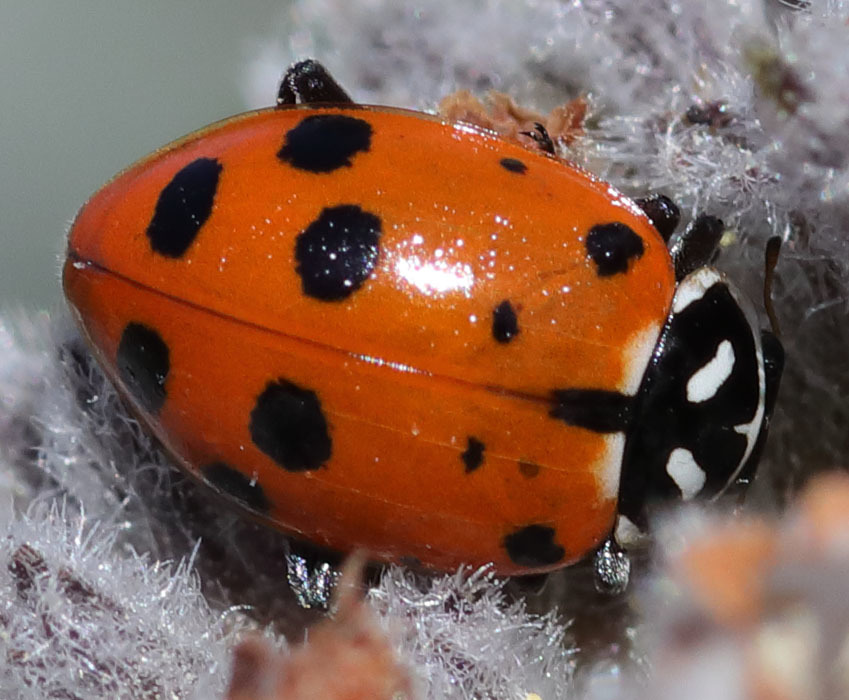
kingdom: Animalia
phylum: Arthropoda
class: Insecta
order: Coleoptera
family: Coccinellidae
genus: Hippodamia
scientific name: Hippodamia convergens
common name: Convergent lady beetle
